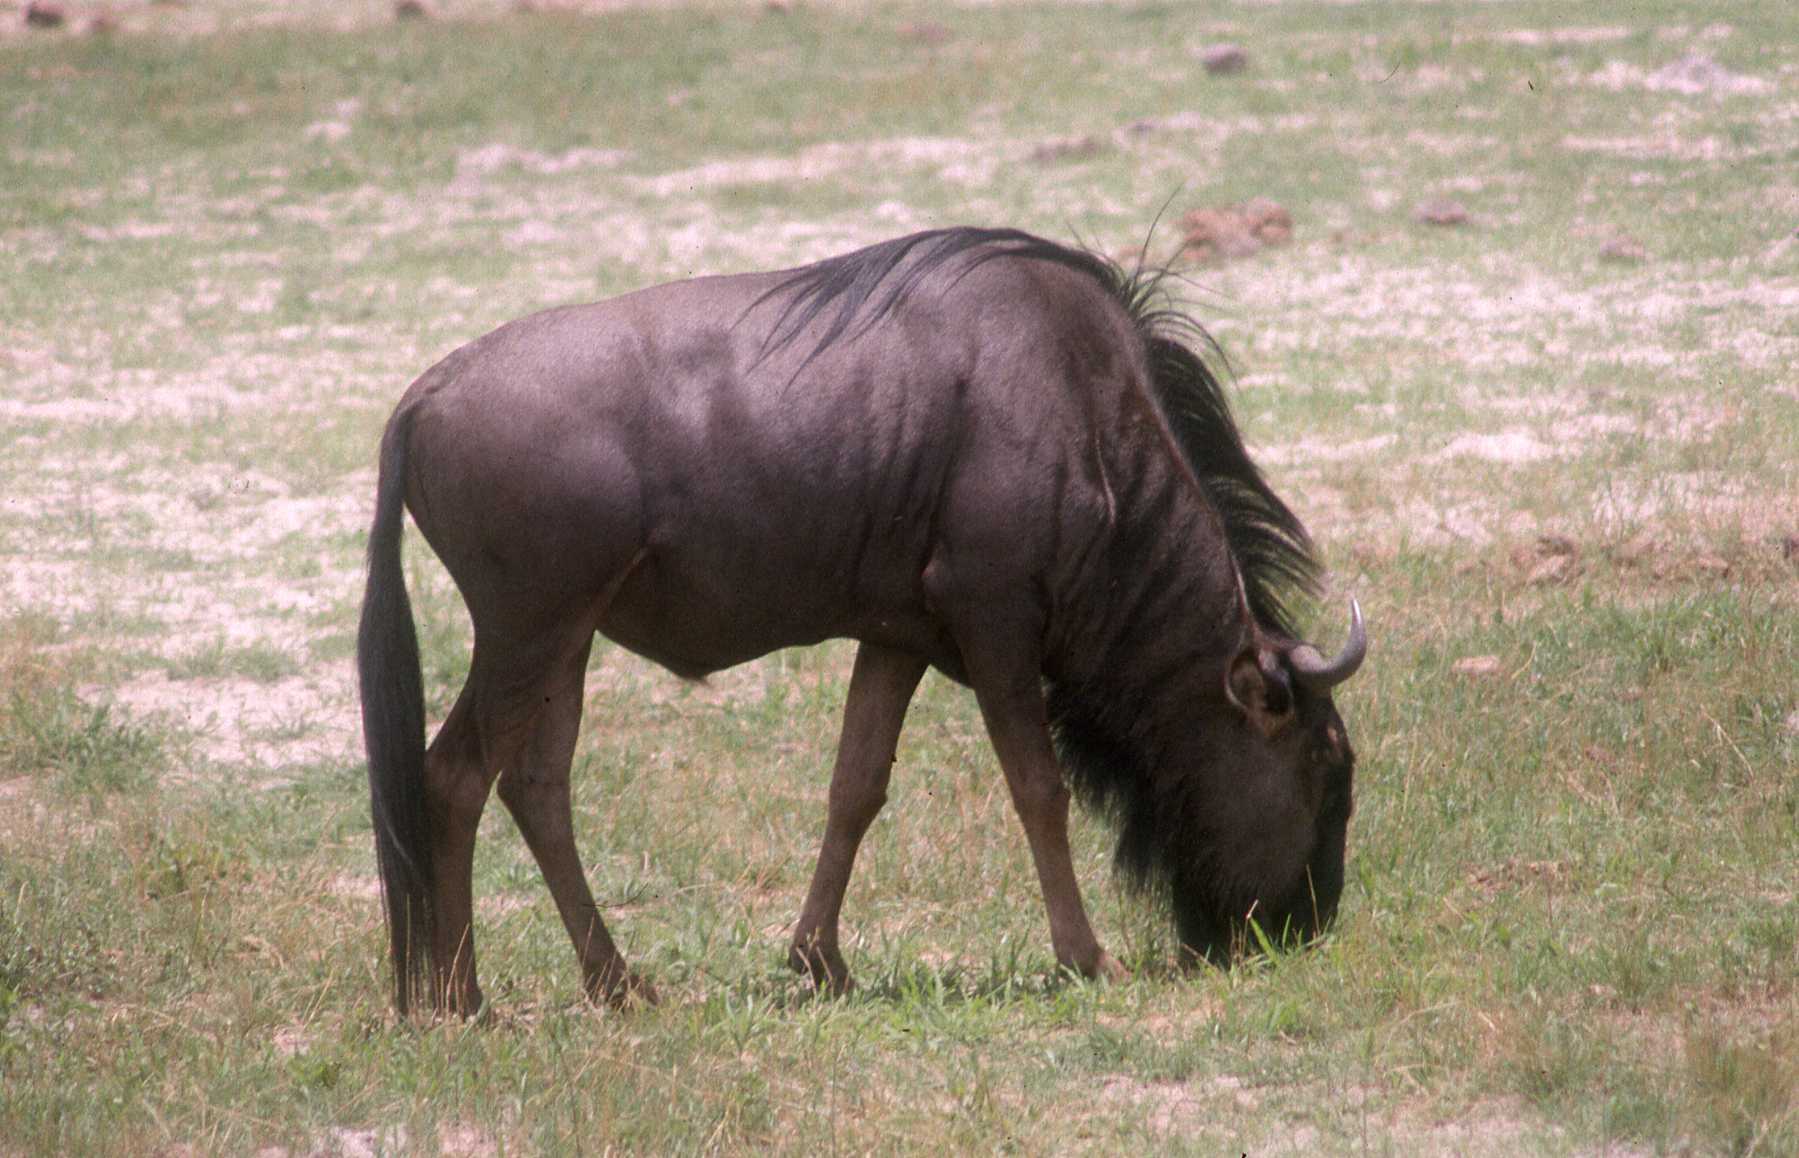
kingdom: Animalia
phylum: Chordata
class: Mammalia
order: Artiodactyla
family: Bovidae
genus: Connochaetes
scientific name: Connochaetes taurinus
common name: Blue wildebeest
